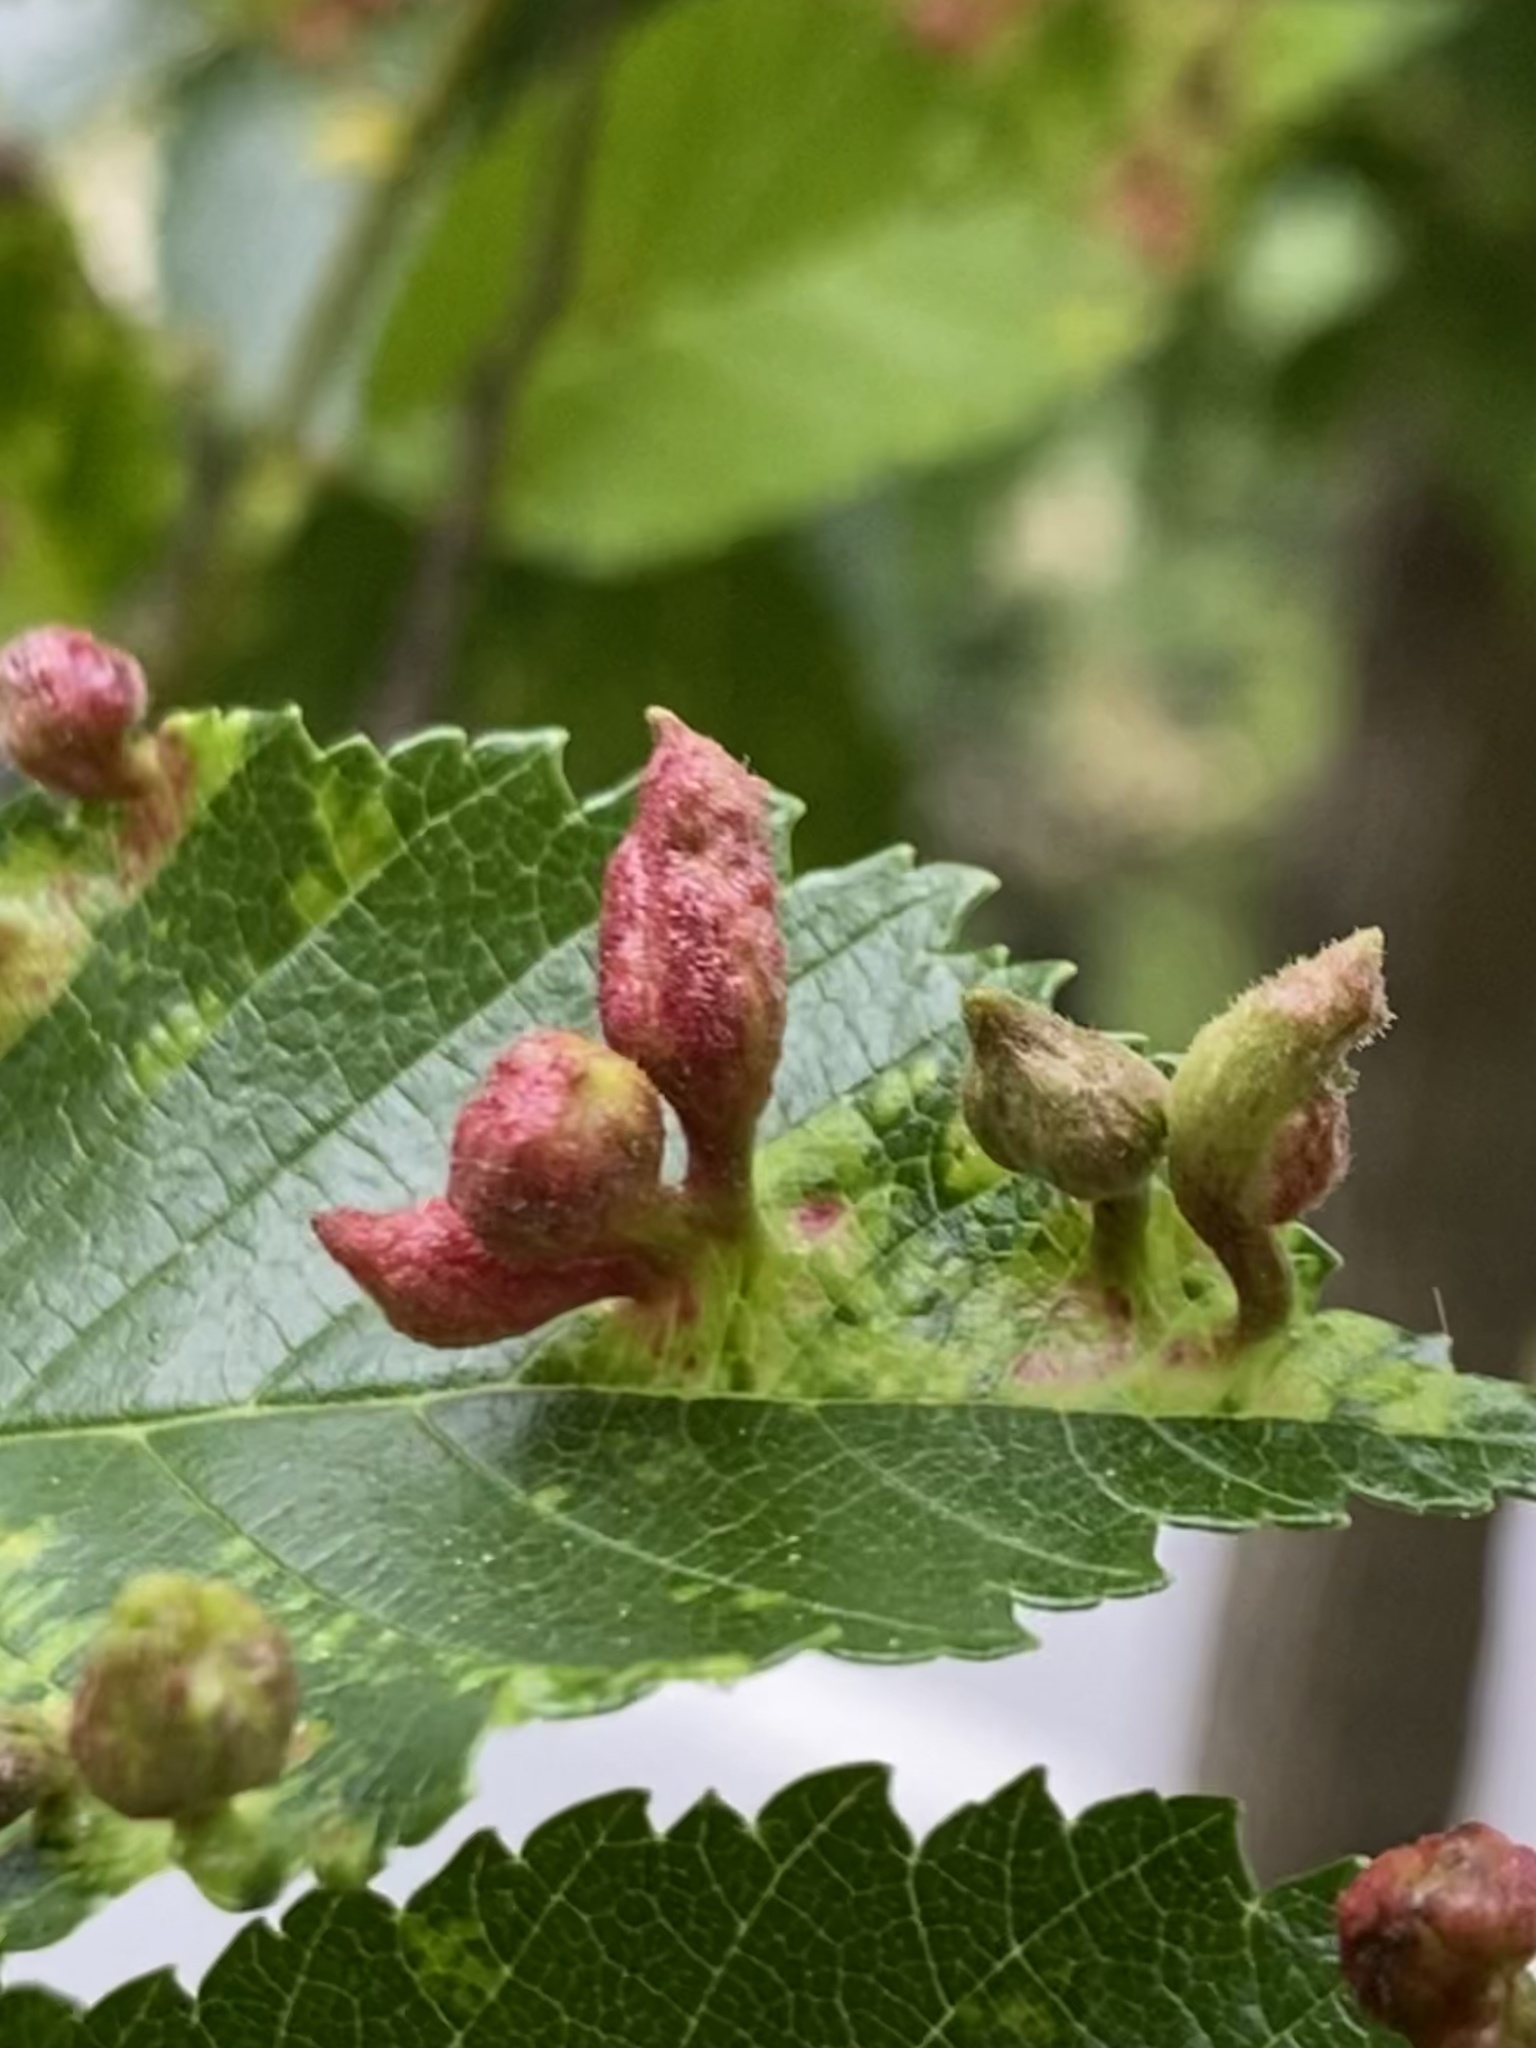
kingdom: Animalia
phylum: Arthropoda
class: Insecta
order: Hemiptera
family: Aphididae
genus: Tetraneura
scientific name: Tetraneura nigriabdominalis
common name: Aphid
